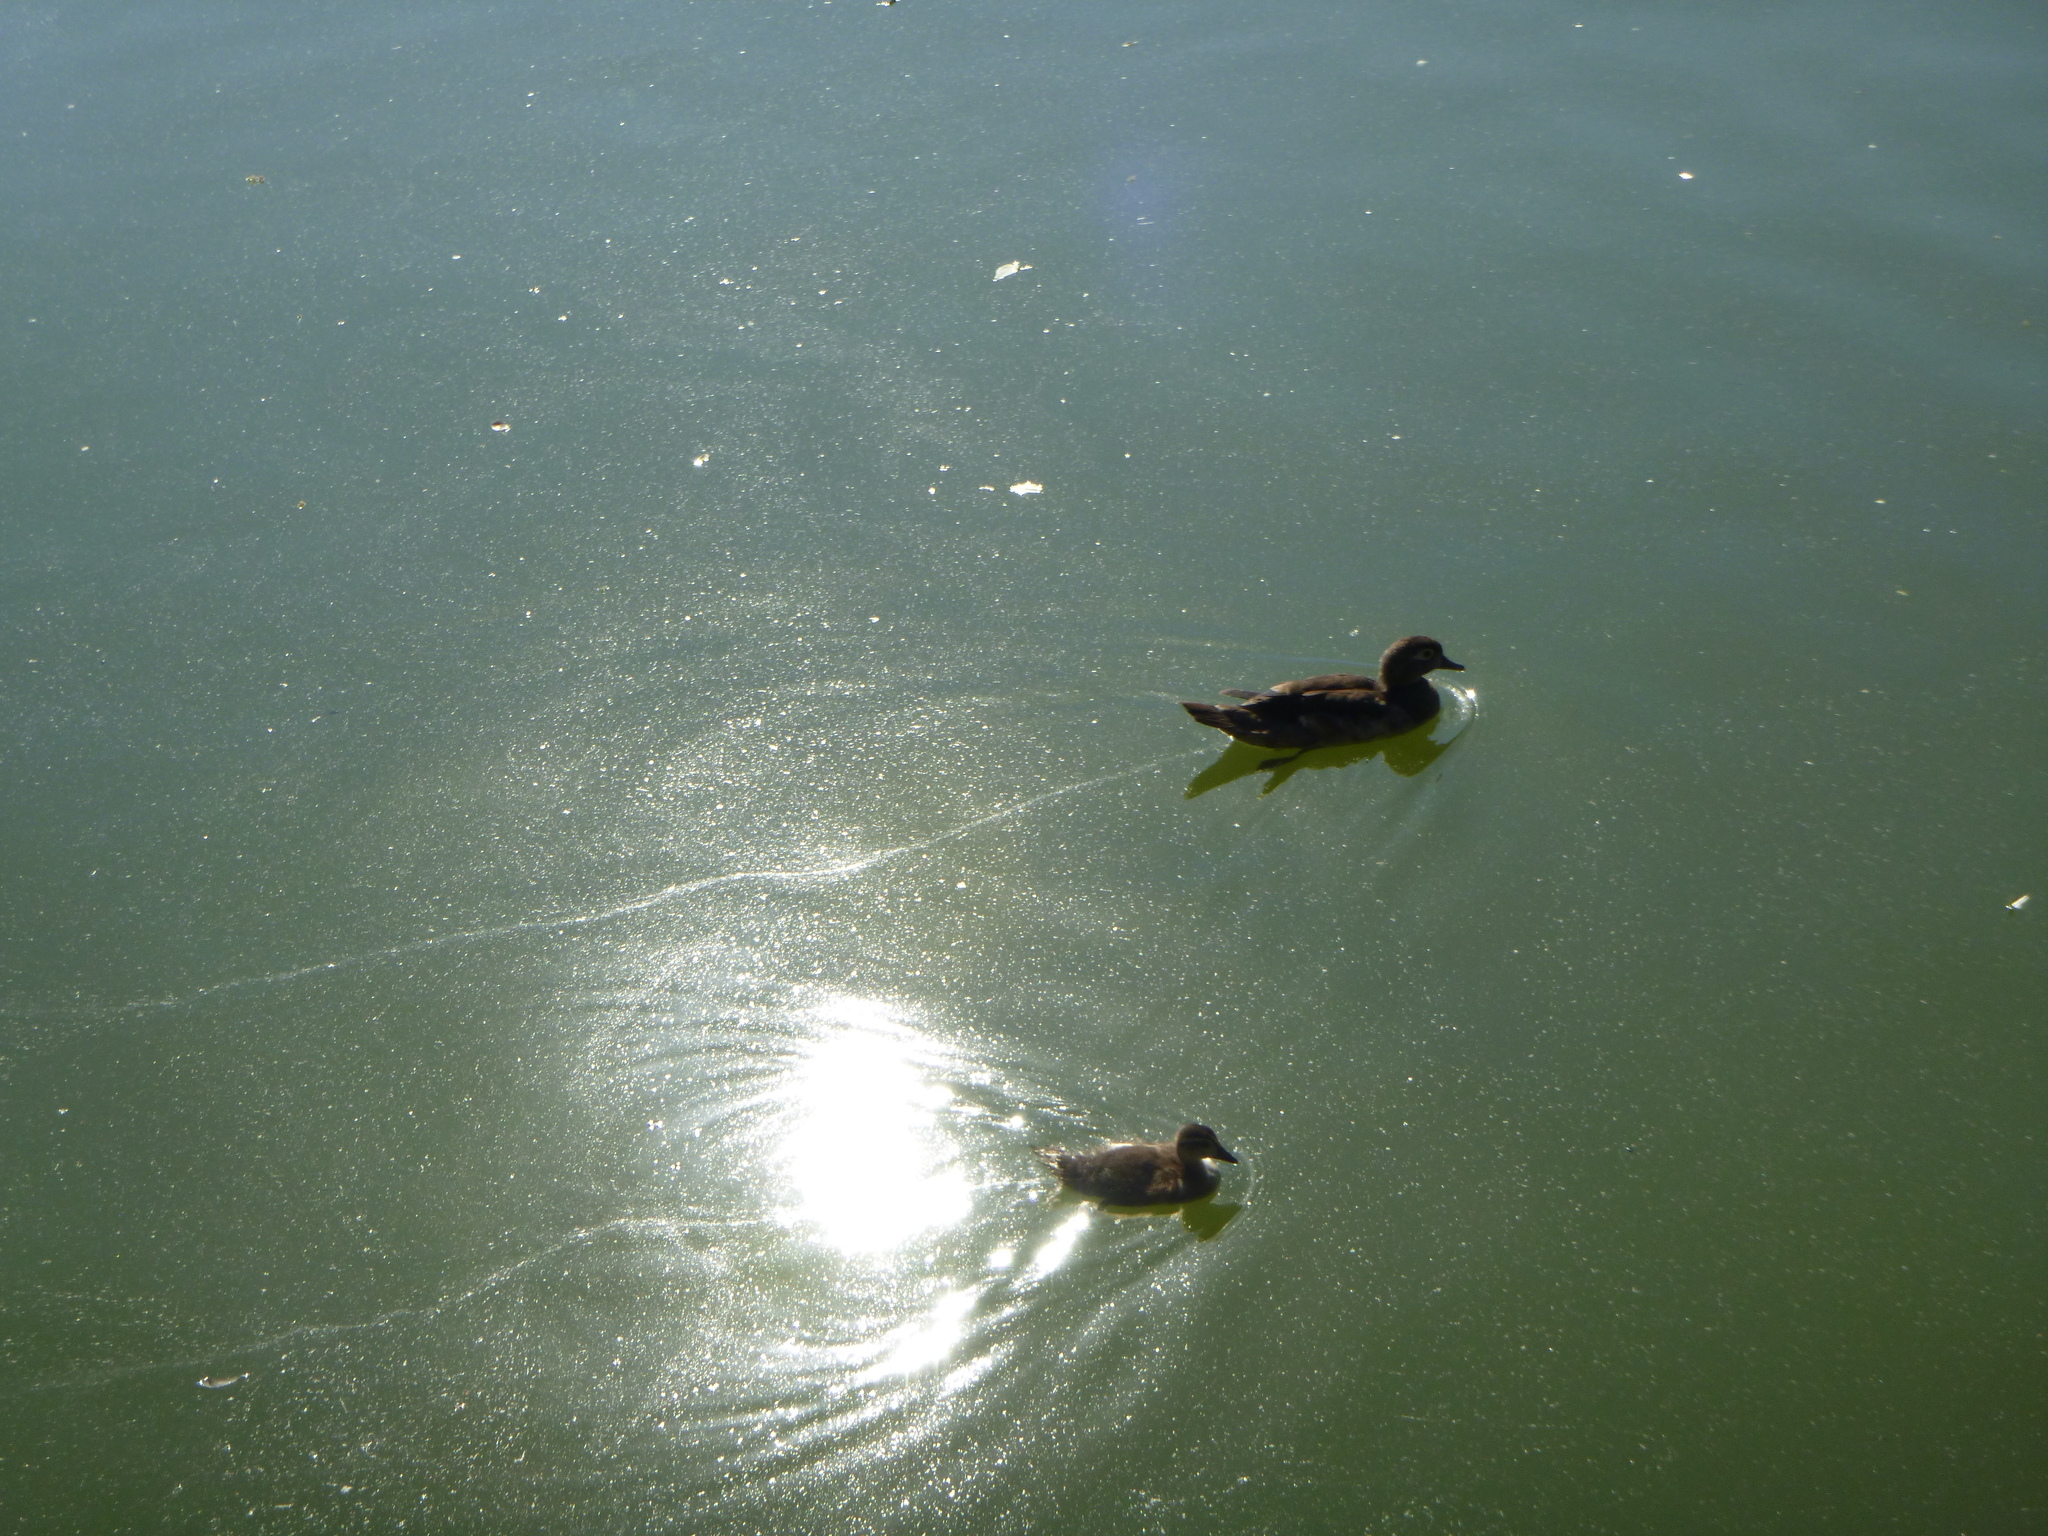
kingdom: Animalia
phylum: Chordata
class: Aves
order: Anseriformes
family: Anatidae
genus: Aix
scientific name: Aix sponsa
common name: Wood duck
